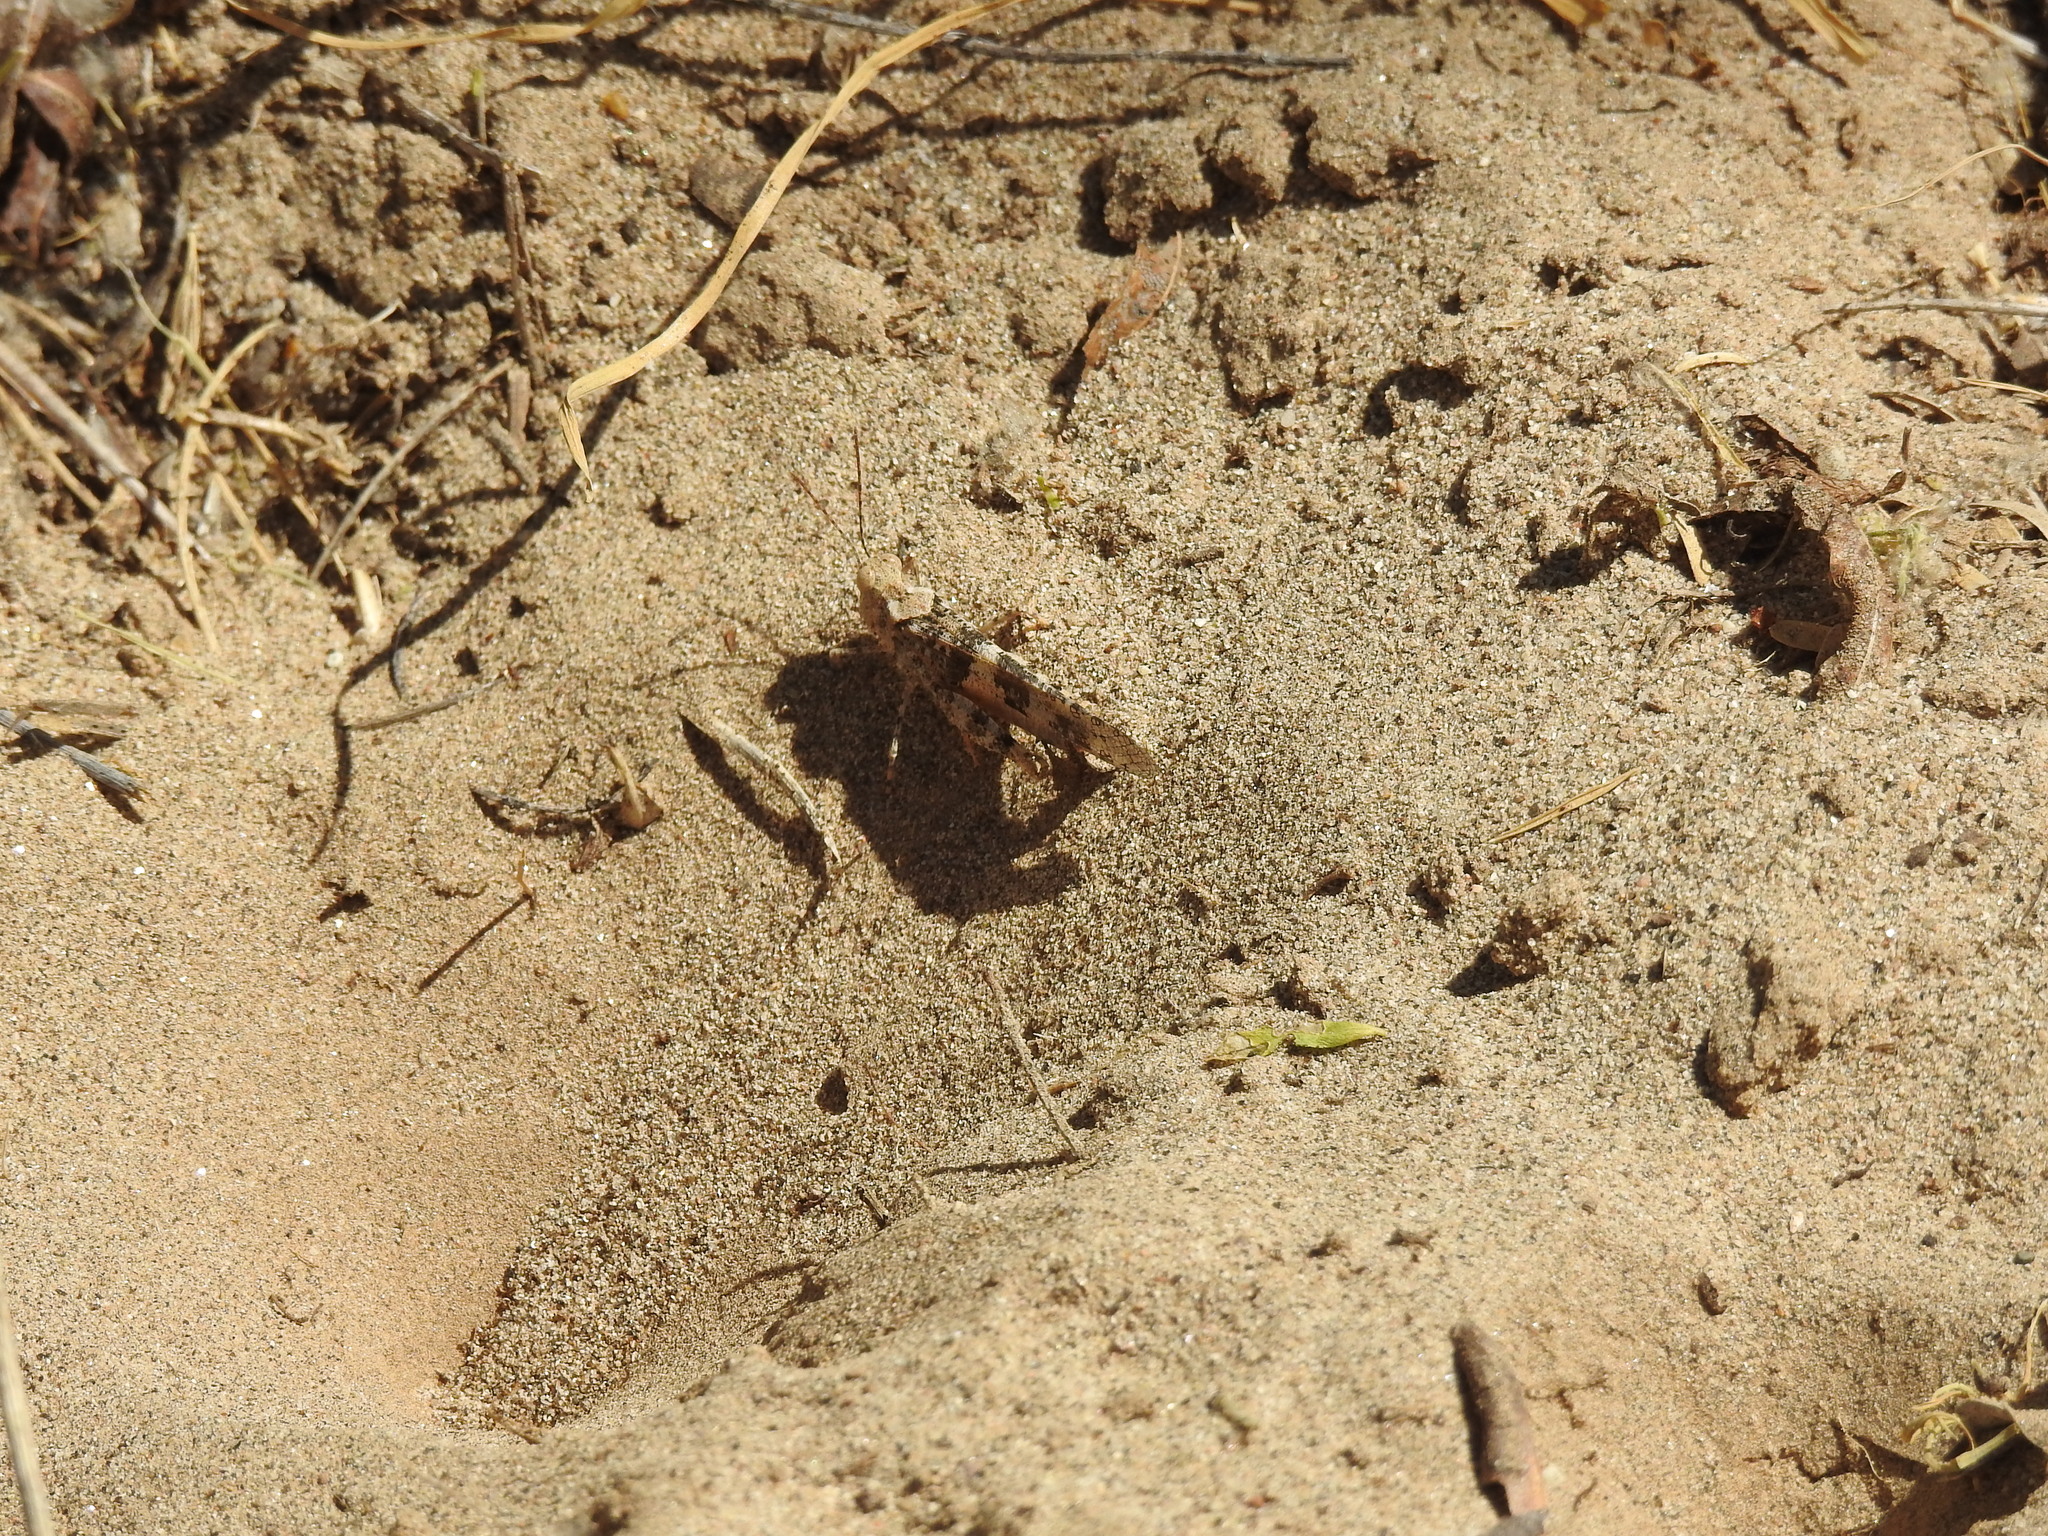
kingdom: Animalia
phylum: Arthropoda
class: Insecta
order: Orthoptera
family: Acrididae
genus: Trimerotropis
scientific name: Trimerotropis pallidipennis
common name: Pallid-winged grasshopper
